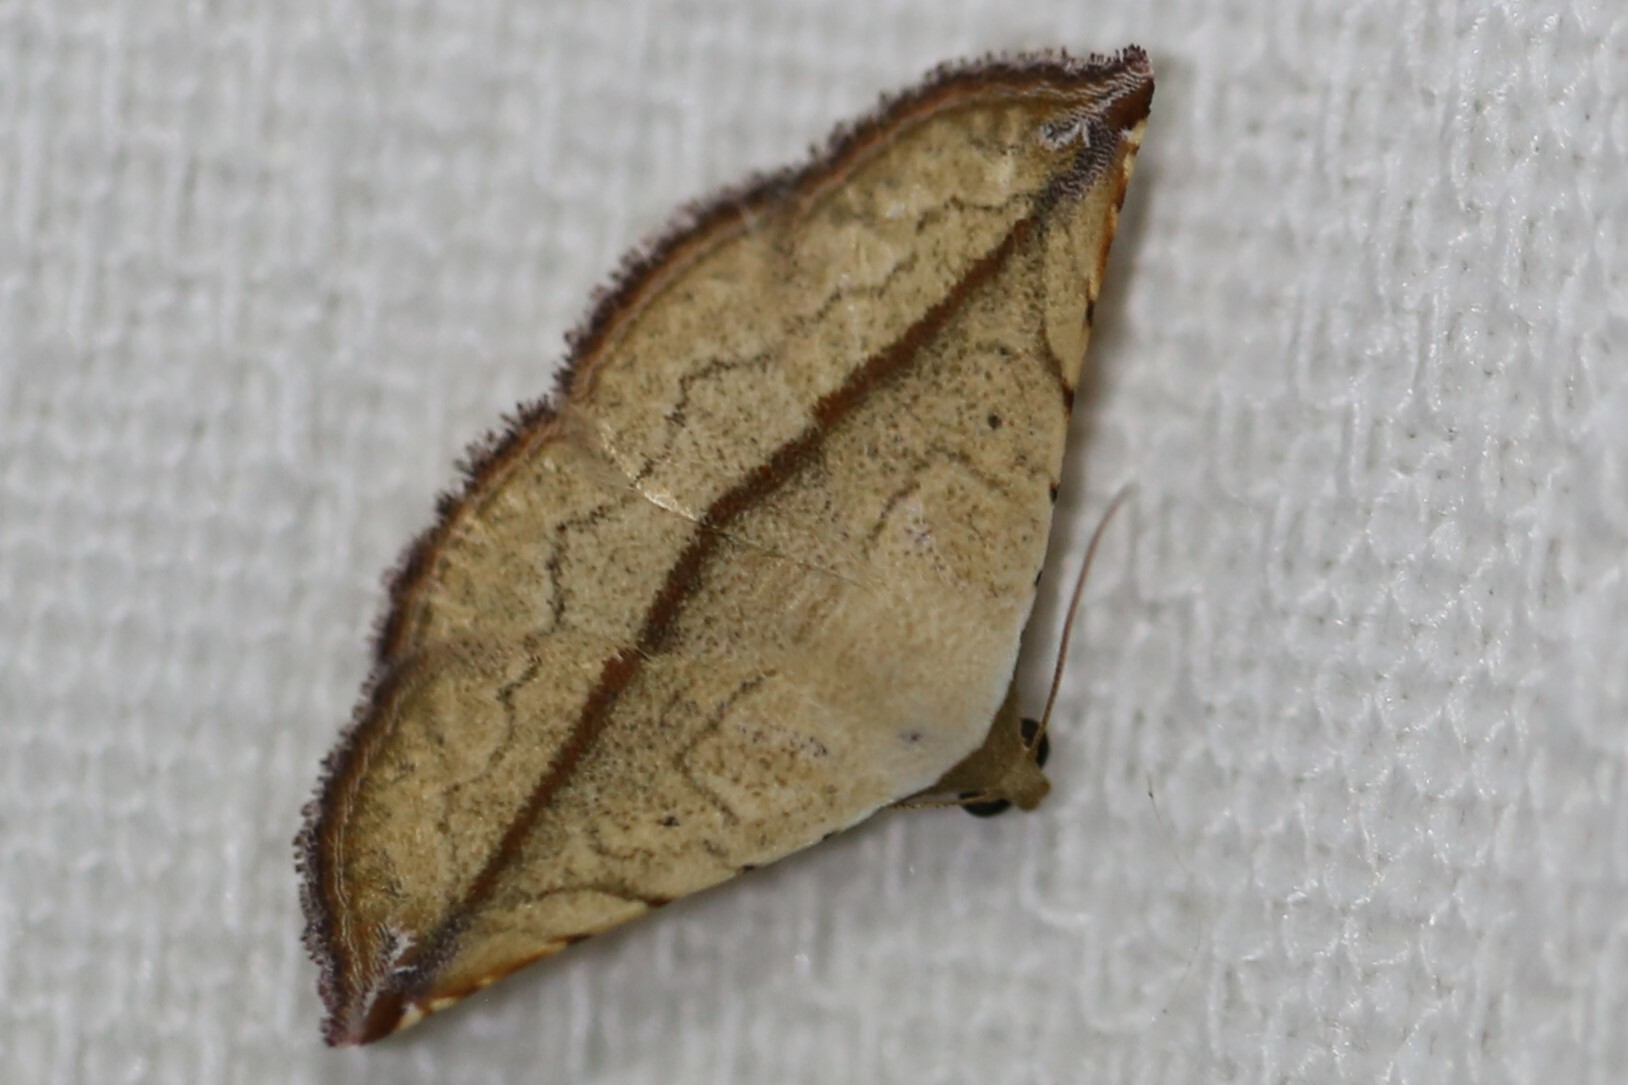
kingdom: Animalia
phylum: Arthropoda
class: Insecta
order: Lepidoptera
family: Noctuidae
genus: Eublemma
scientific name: Eublemma perversicolor
